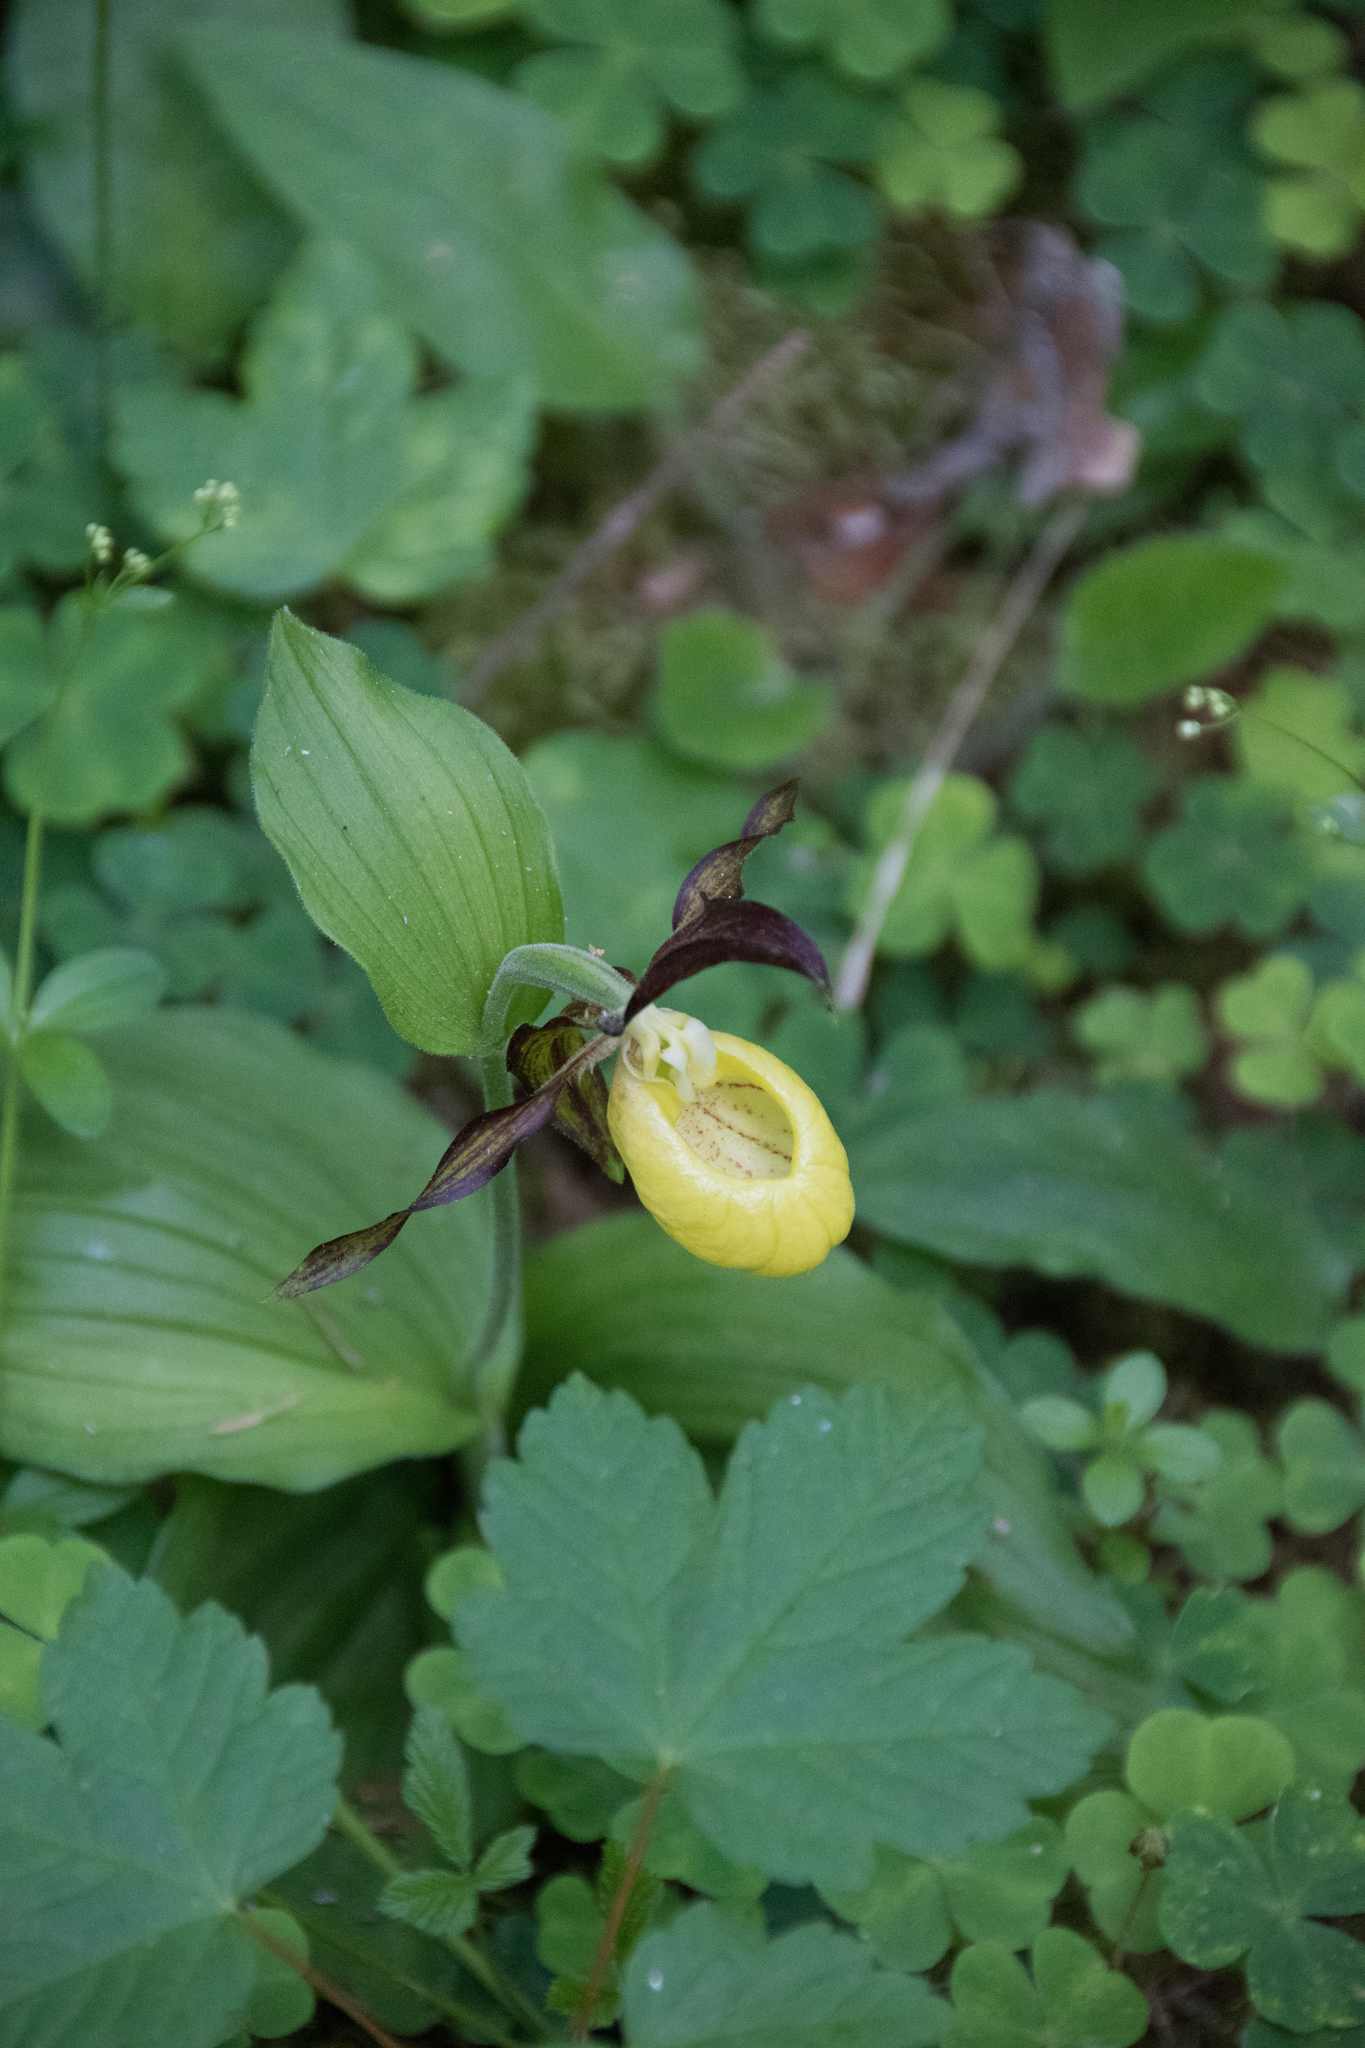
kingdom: Plantae
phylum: Tracheophyta
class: Liliopsida
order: Asparagales
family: Orchidaceae
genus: Cypripedium
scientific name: Cypripedium calceolus
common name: Lady's-slipper
